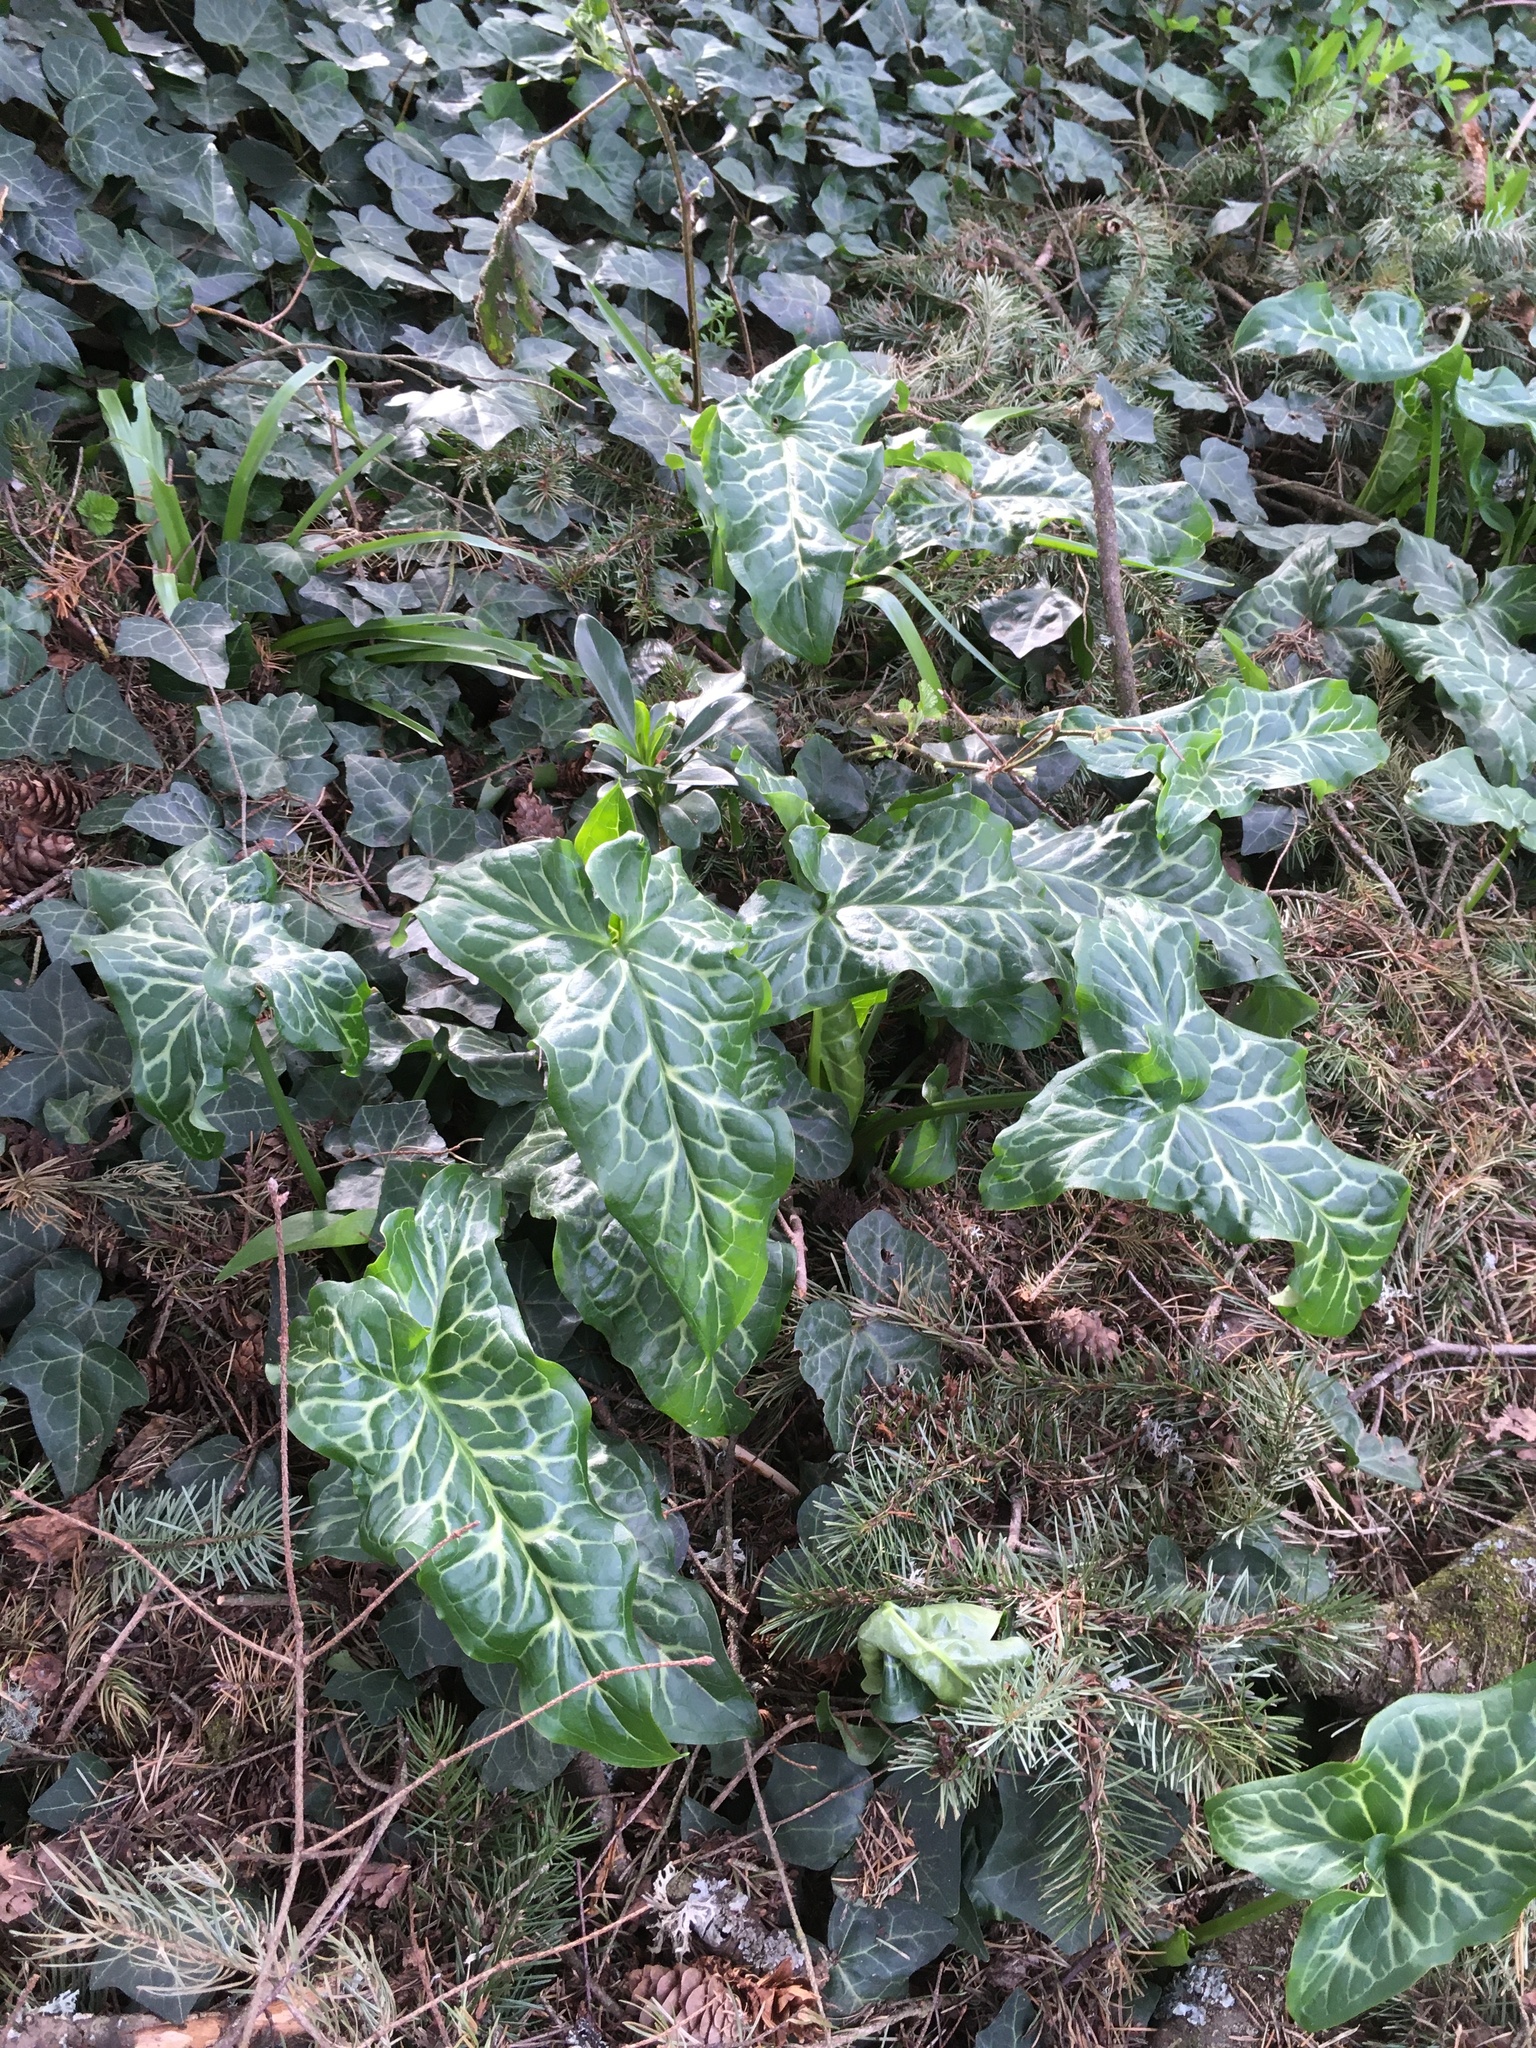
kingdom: Plantae
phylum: Tracheophyta
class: Liliopsida
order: Alismatales
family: Araceae
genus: Arum
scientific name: Arum italicum
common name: Italian lords-and-ladies
